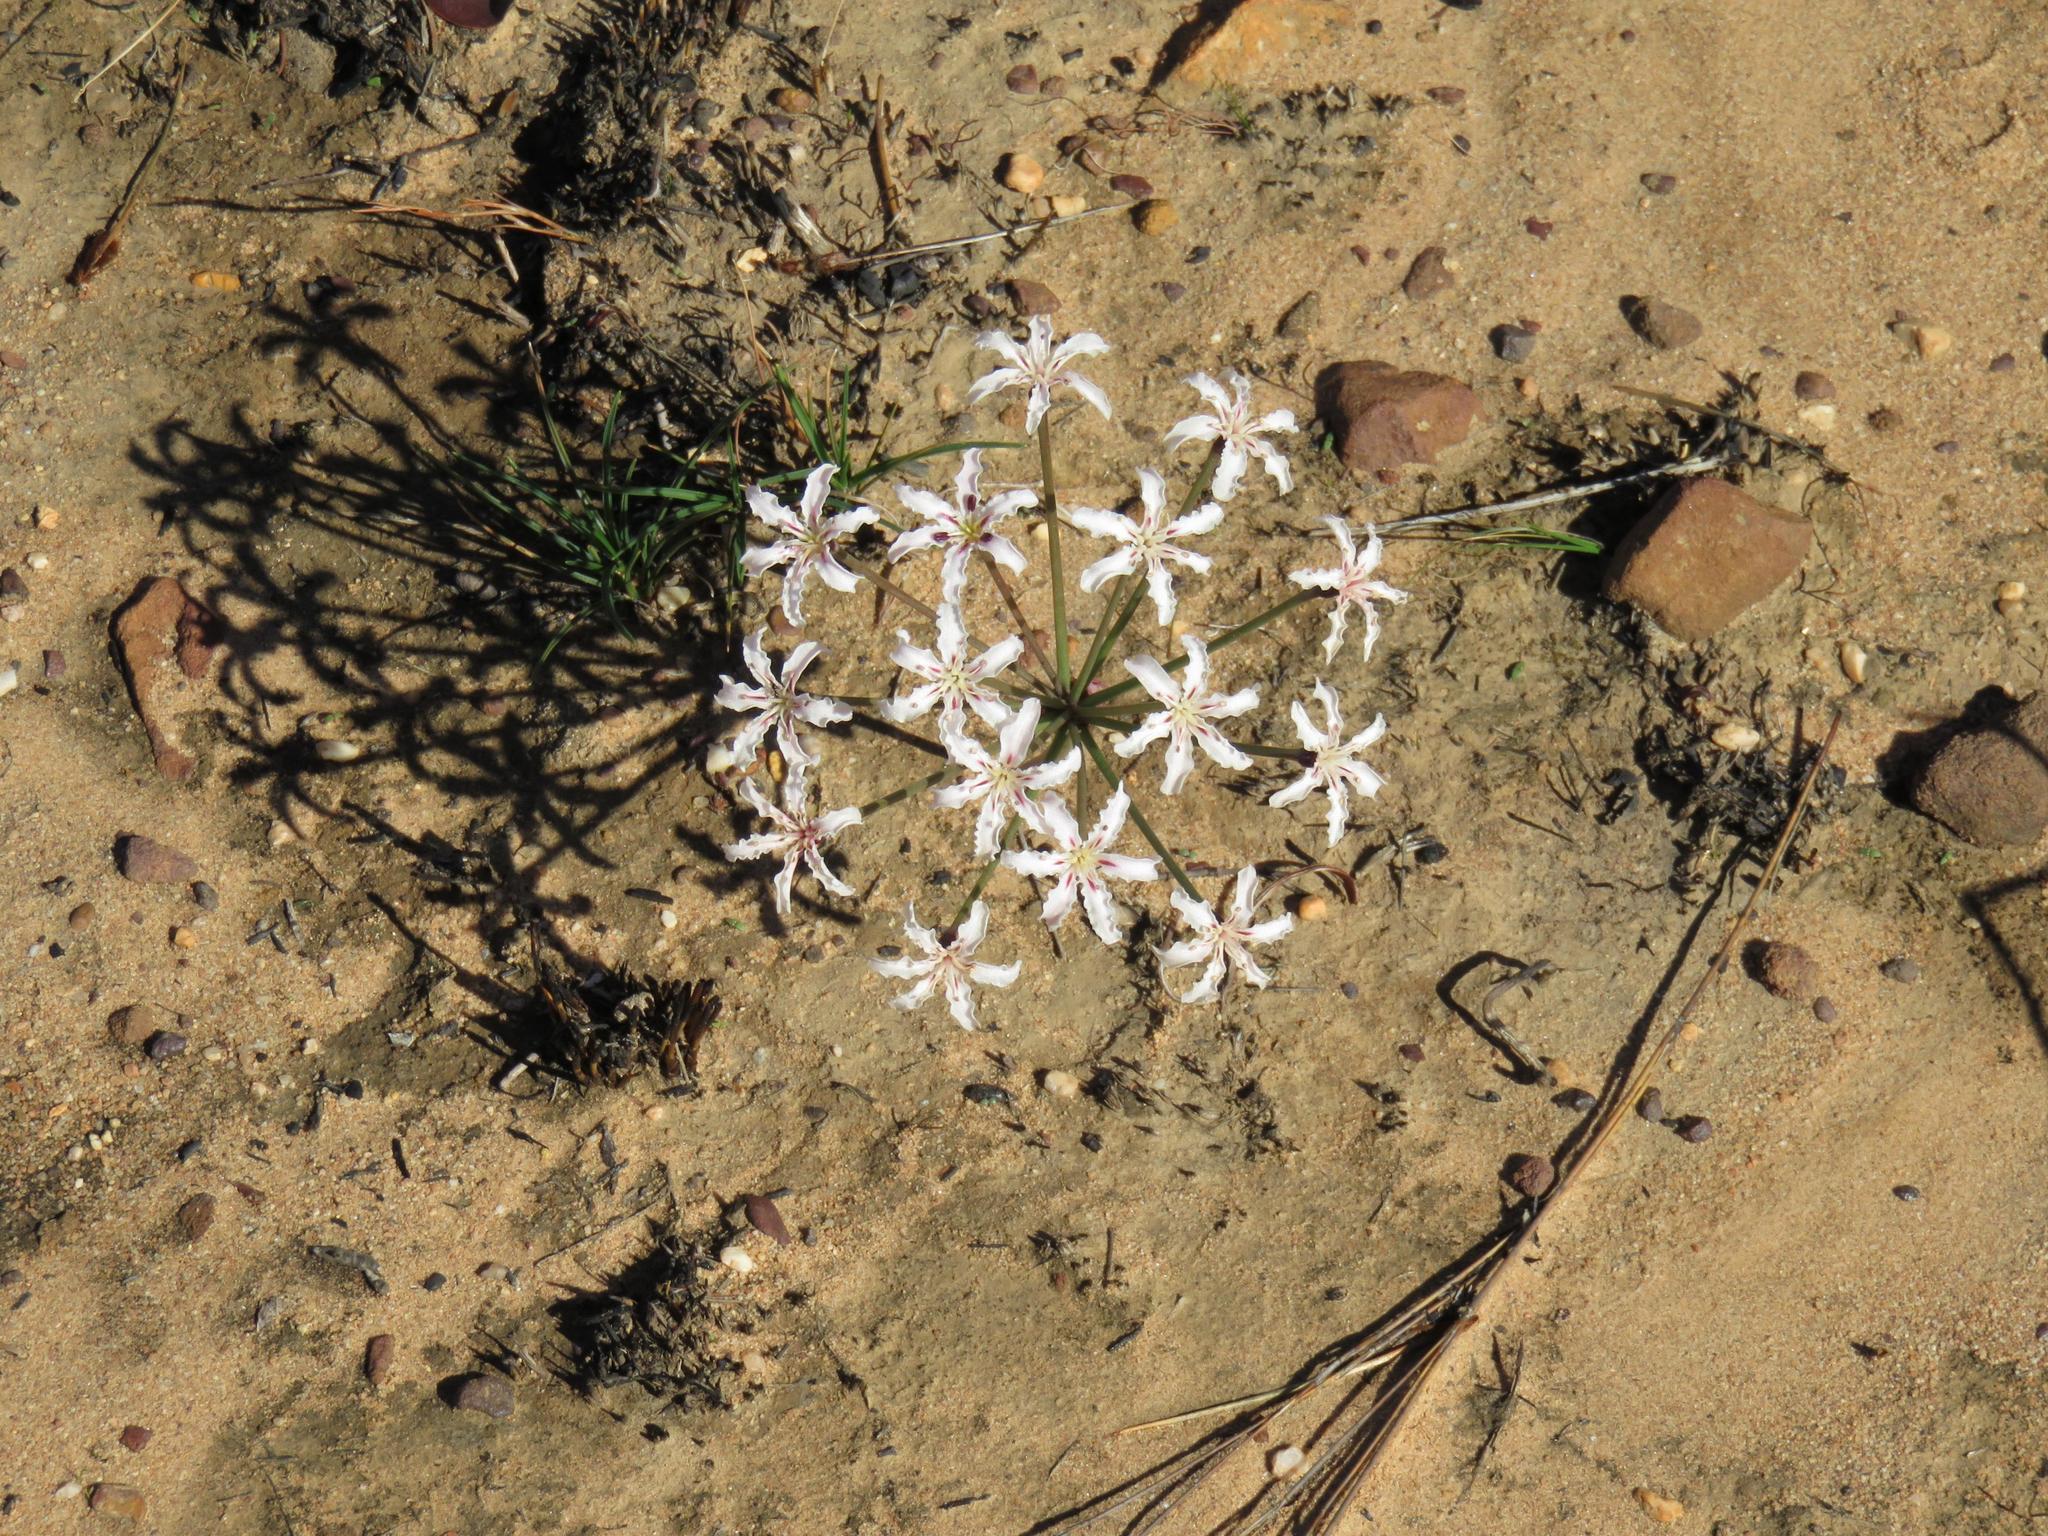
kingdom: Plantae
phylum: Tracheophyta
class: Liliopsida
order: Asparagales
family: Amaryllidaceae
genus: Hessea
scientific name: Hessea monticola
